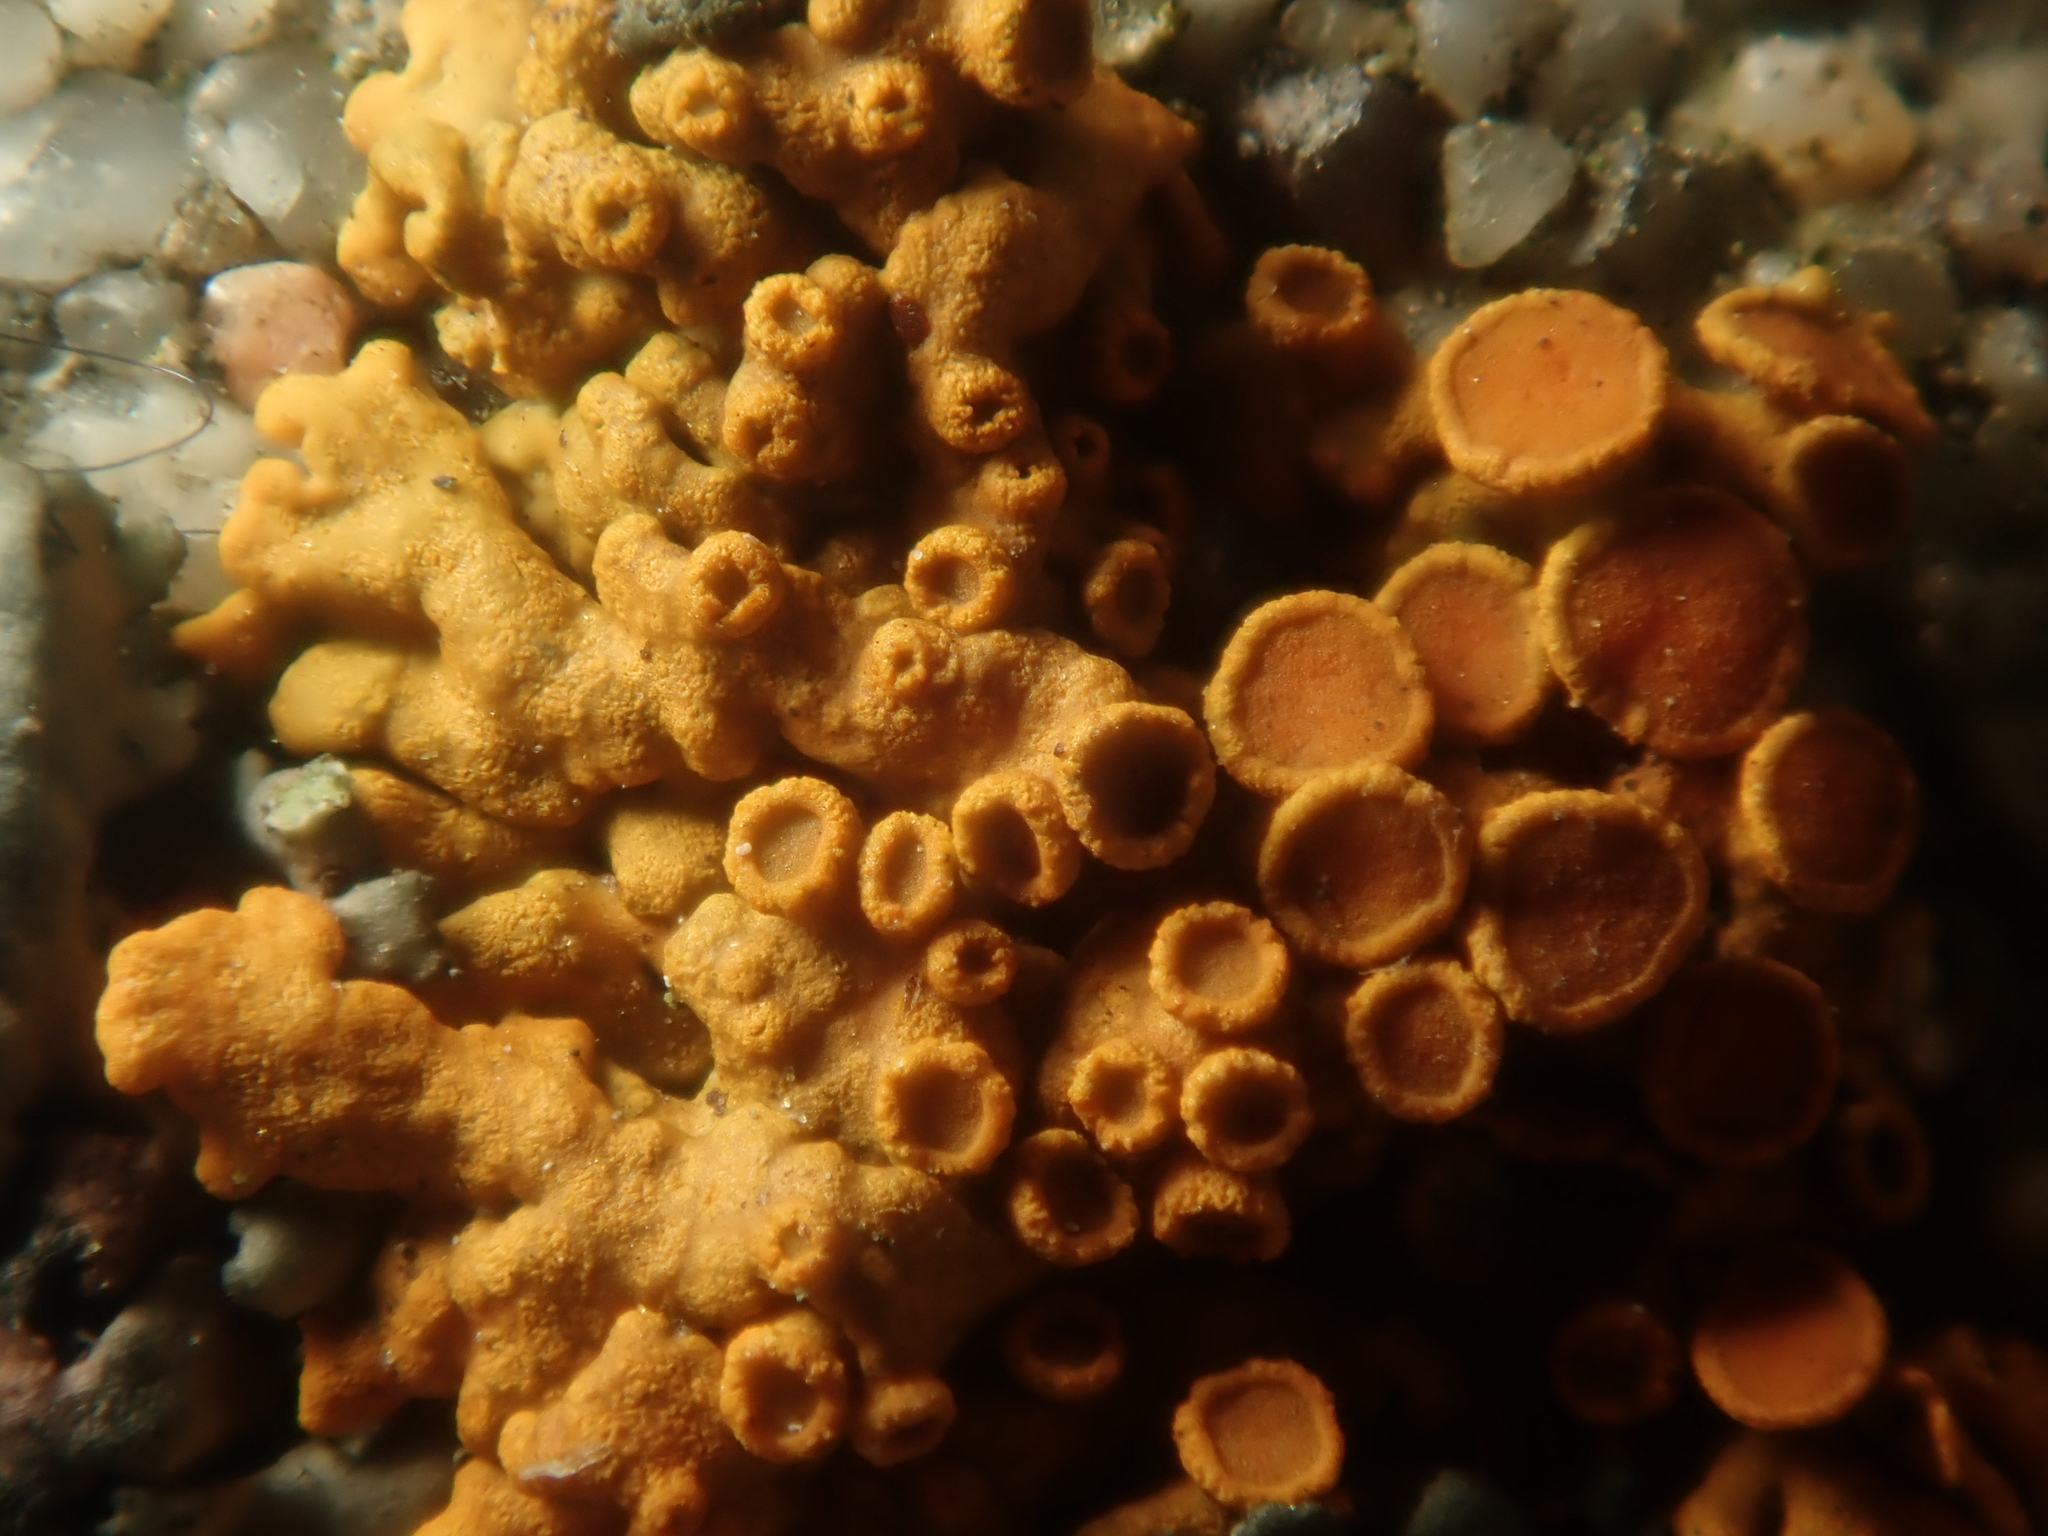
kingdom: Fungi
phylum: Ascomycota
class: Lecanoromycetes
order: Teloschistales
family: Teloschistaceae
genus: Xanthoria
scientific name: Xanthoria elegans
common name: Elegant sunburst lichen
